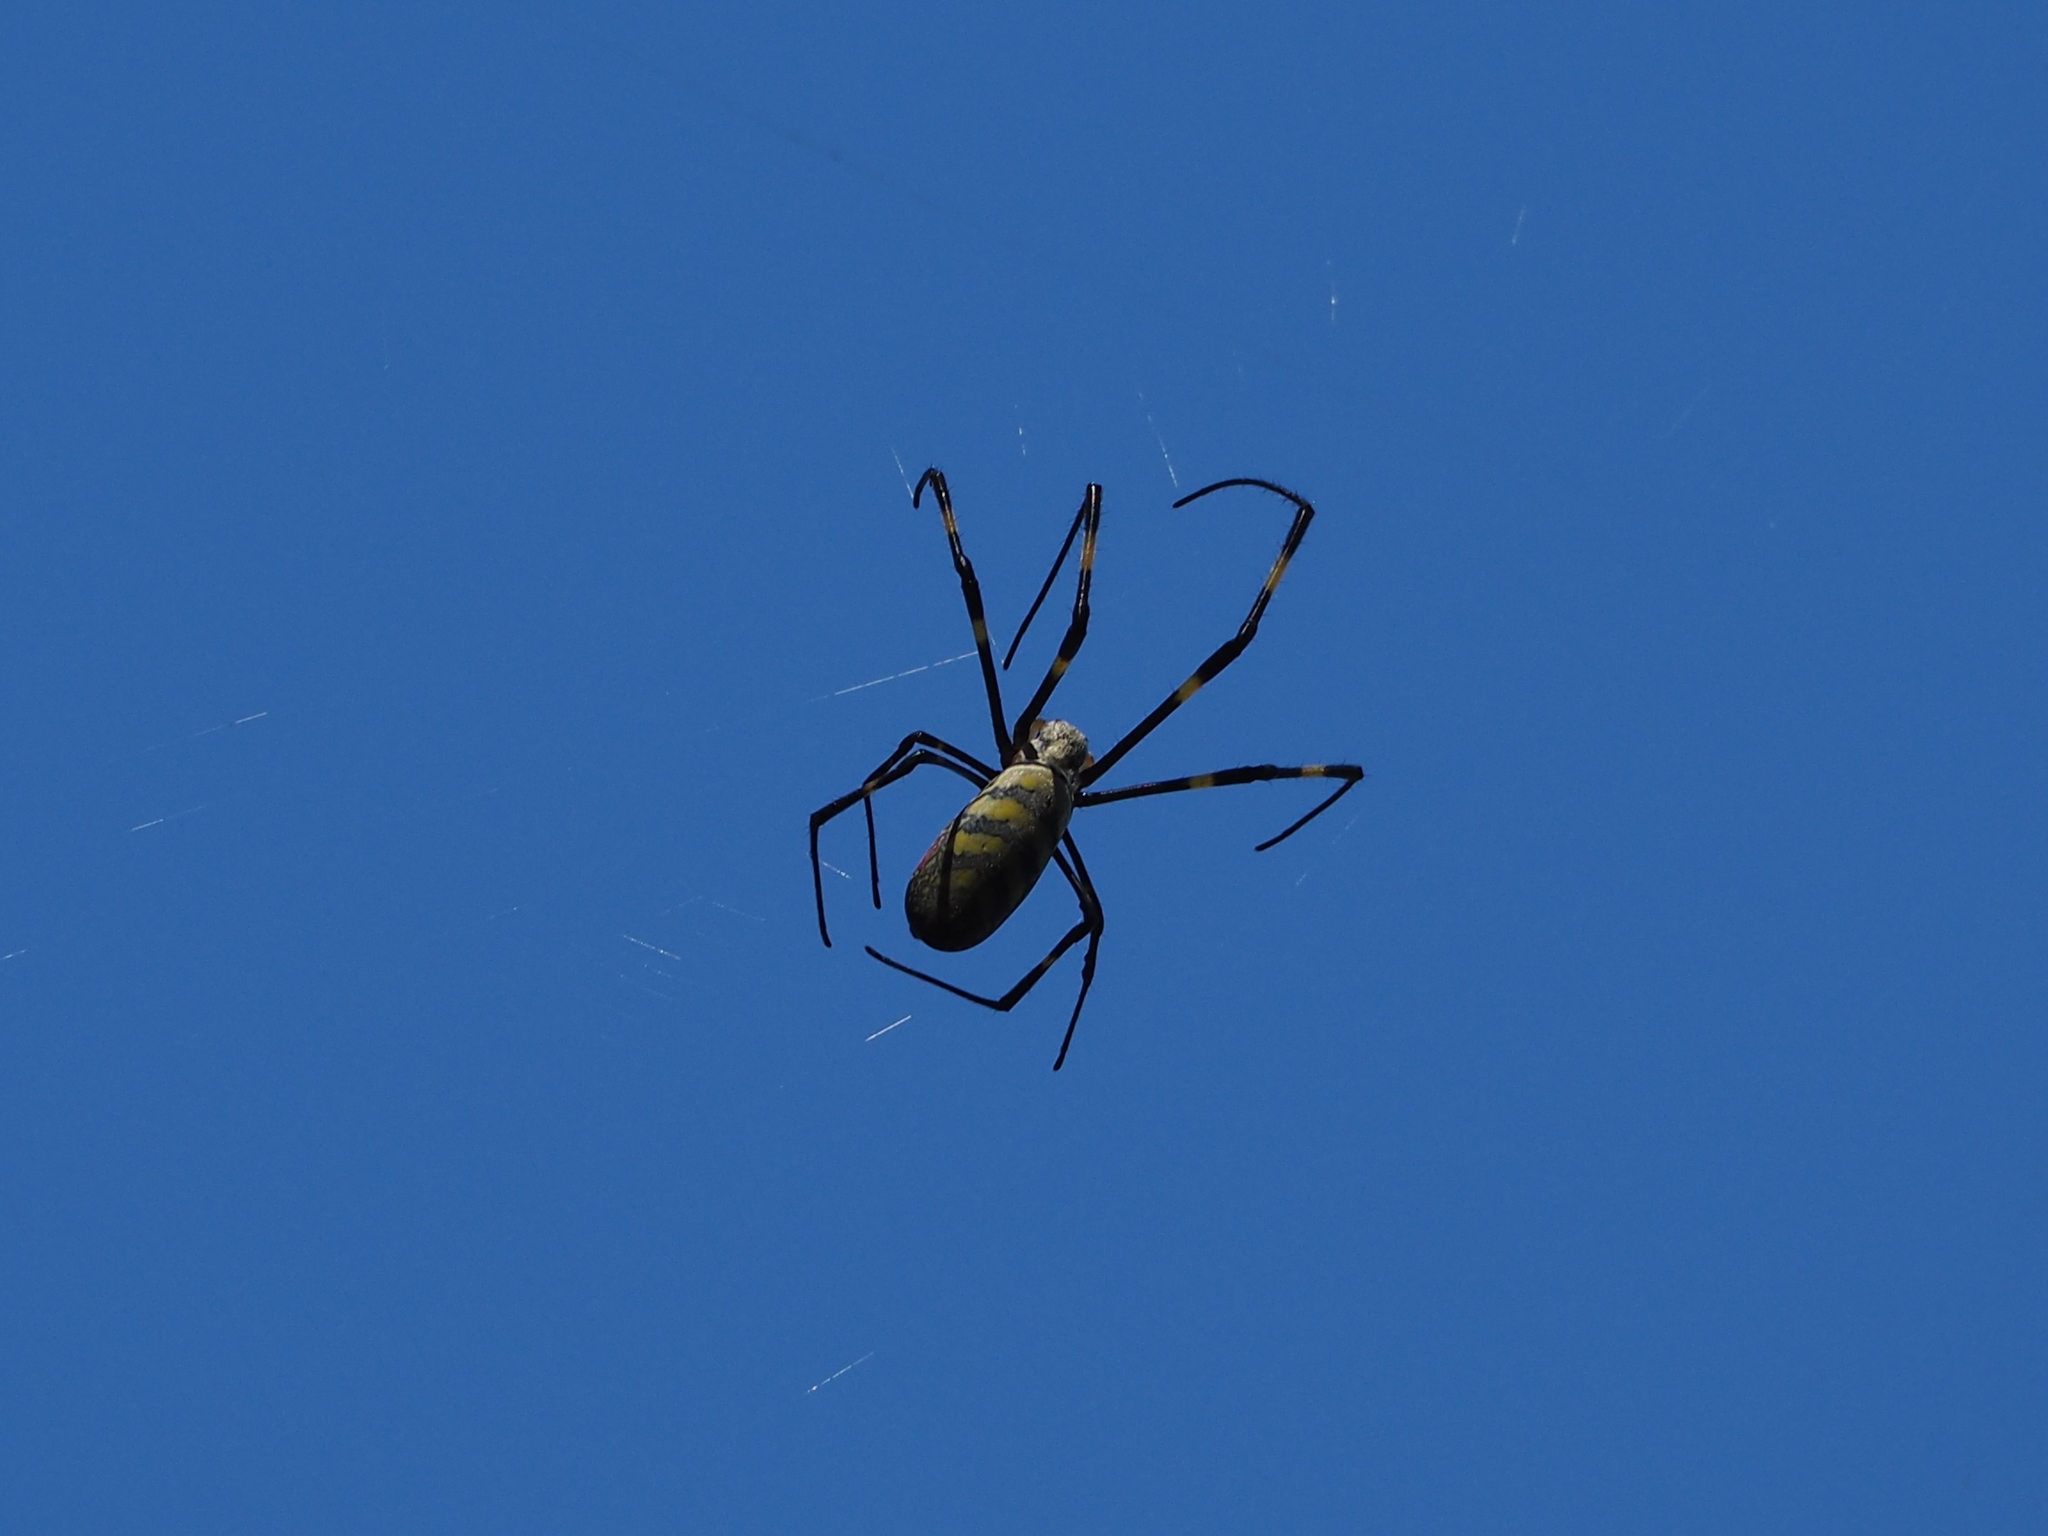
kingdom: Animalia
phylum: Arthropoda
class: Arachnida
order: Araneae
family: Araneidae
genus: Trichonephila
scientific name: Trichonephila clavata
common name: Jorō spider
